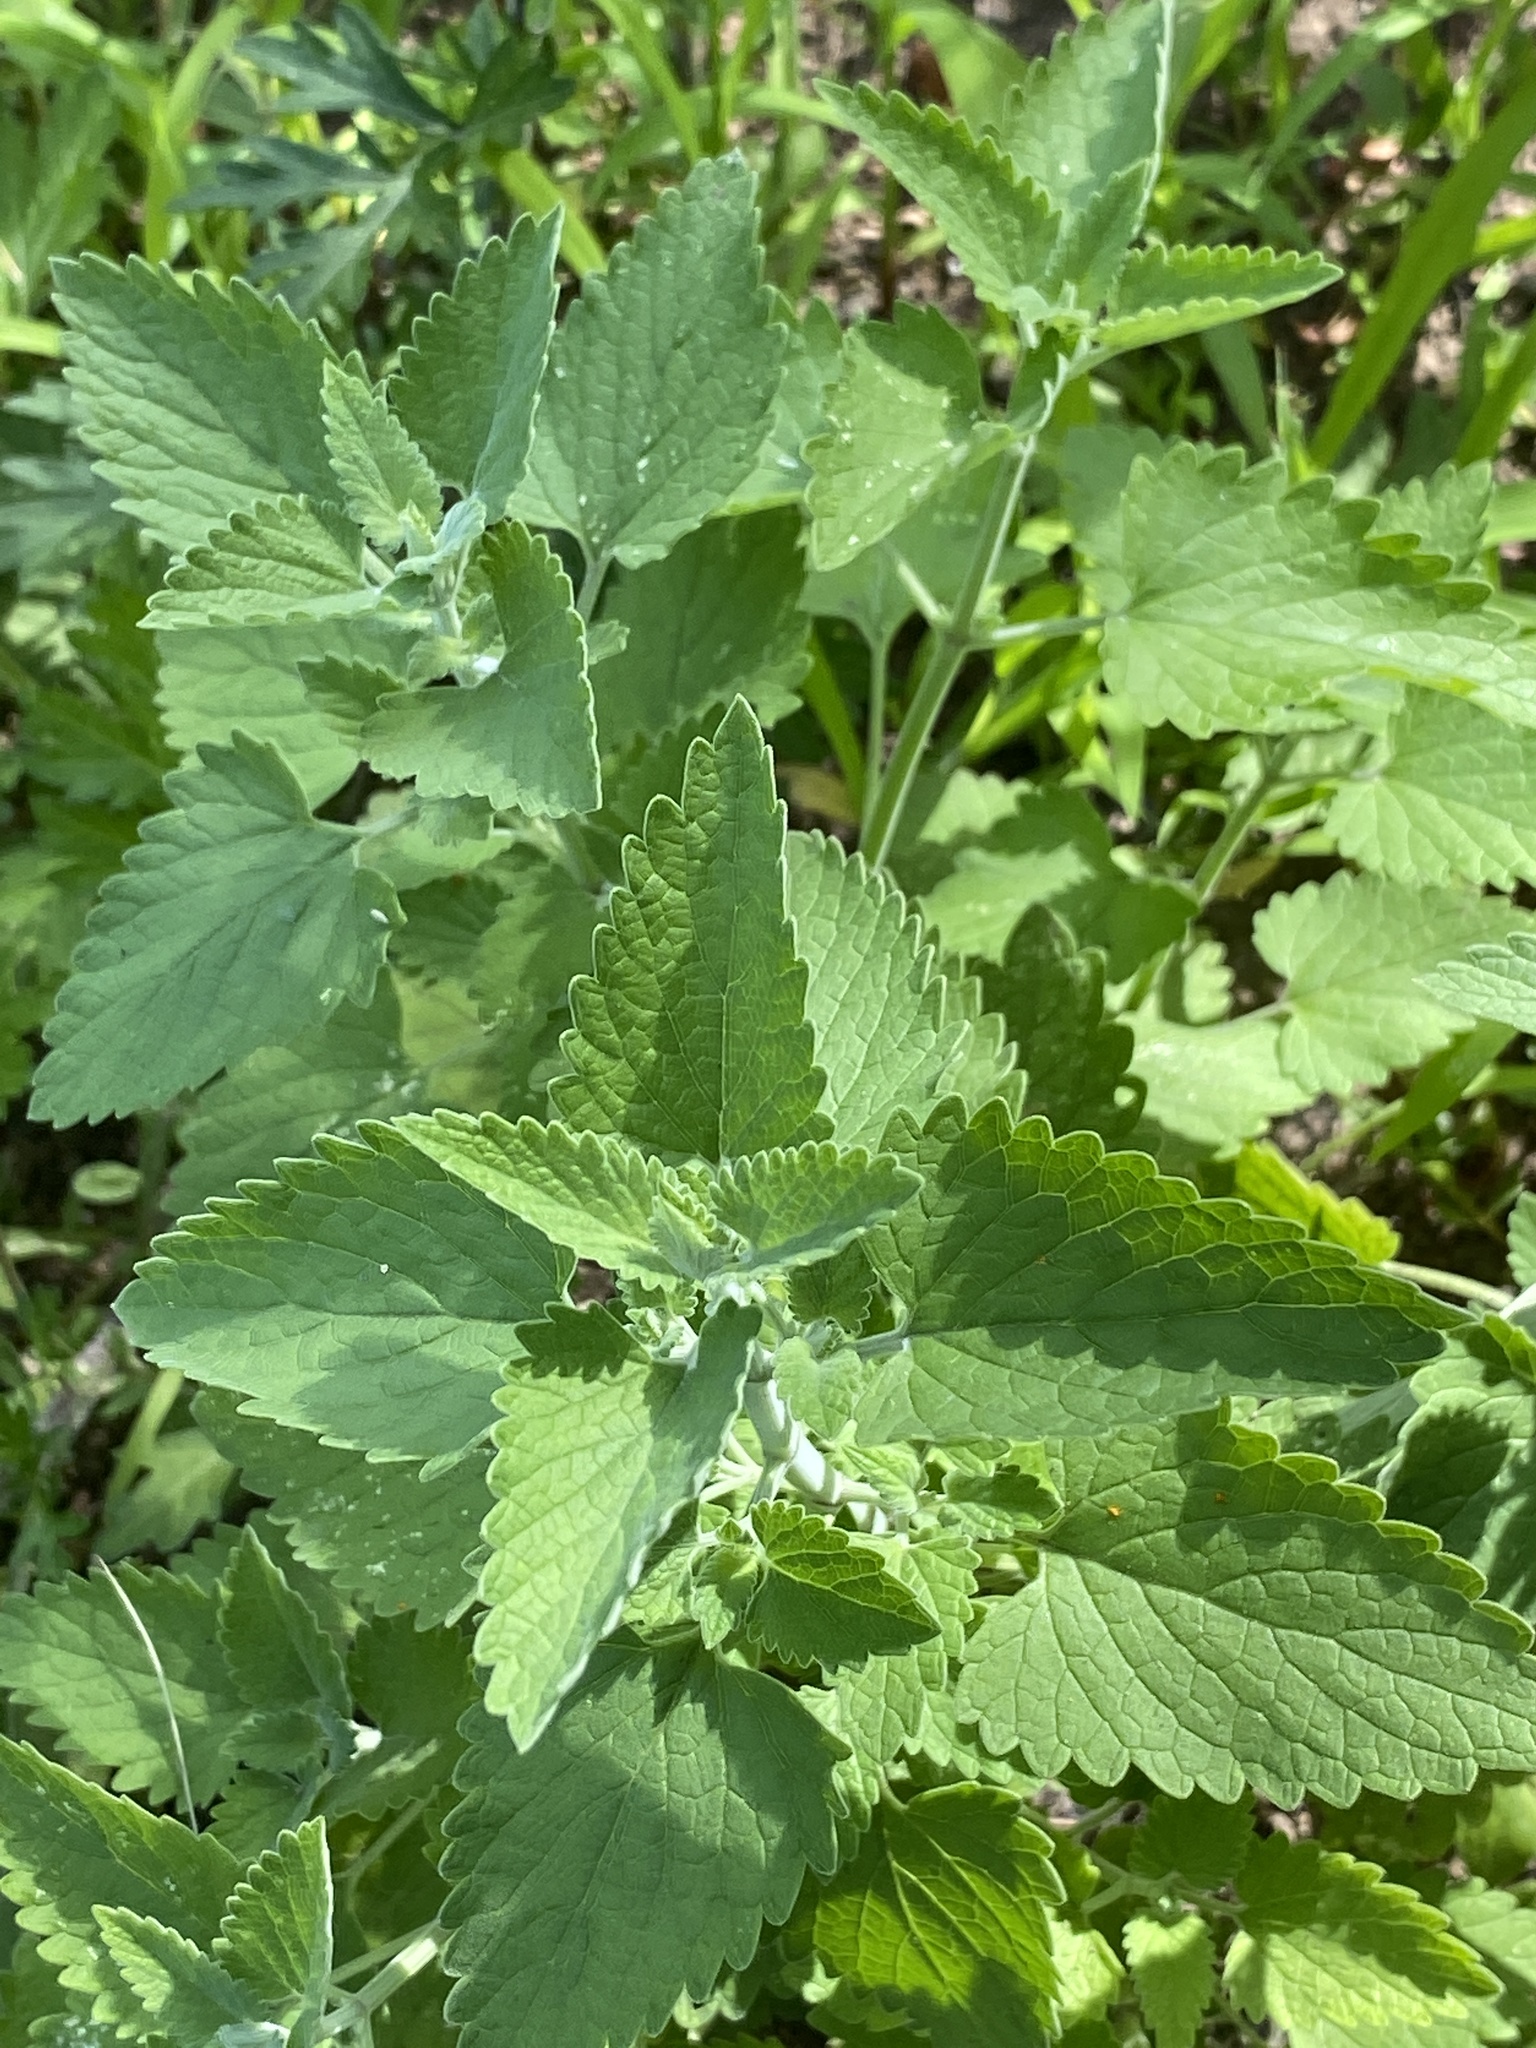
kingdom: Plantae
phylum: Tracheophyta
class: Magnoliopsida
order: Lamiales
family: Lamiaceae
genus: Nepeta
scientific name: Nepeta cataria
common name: Catnip
